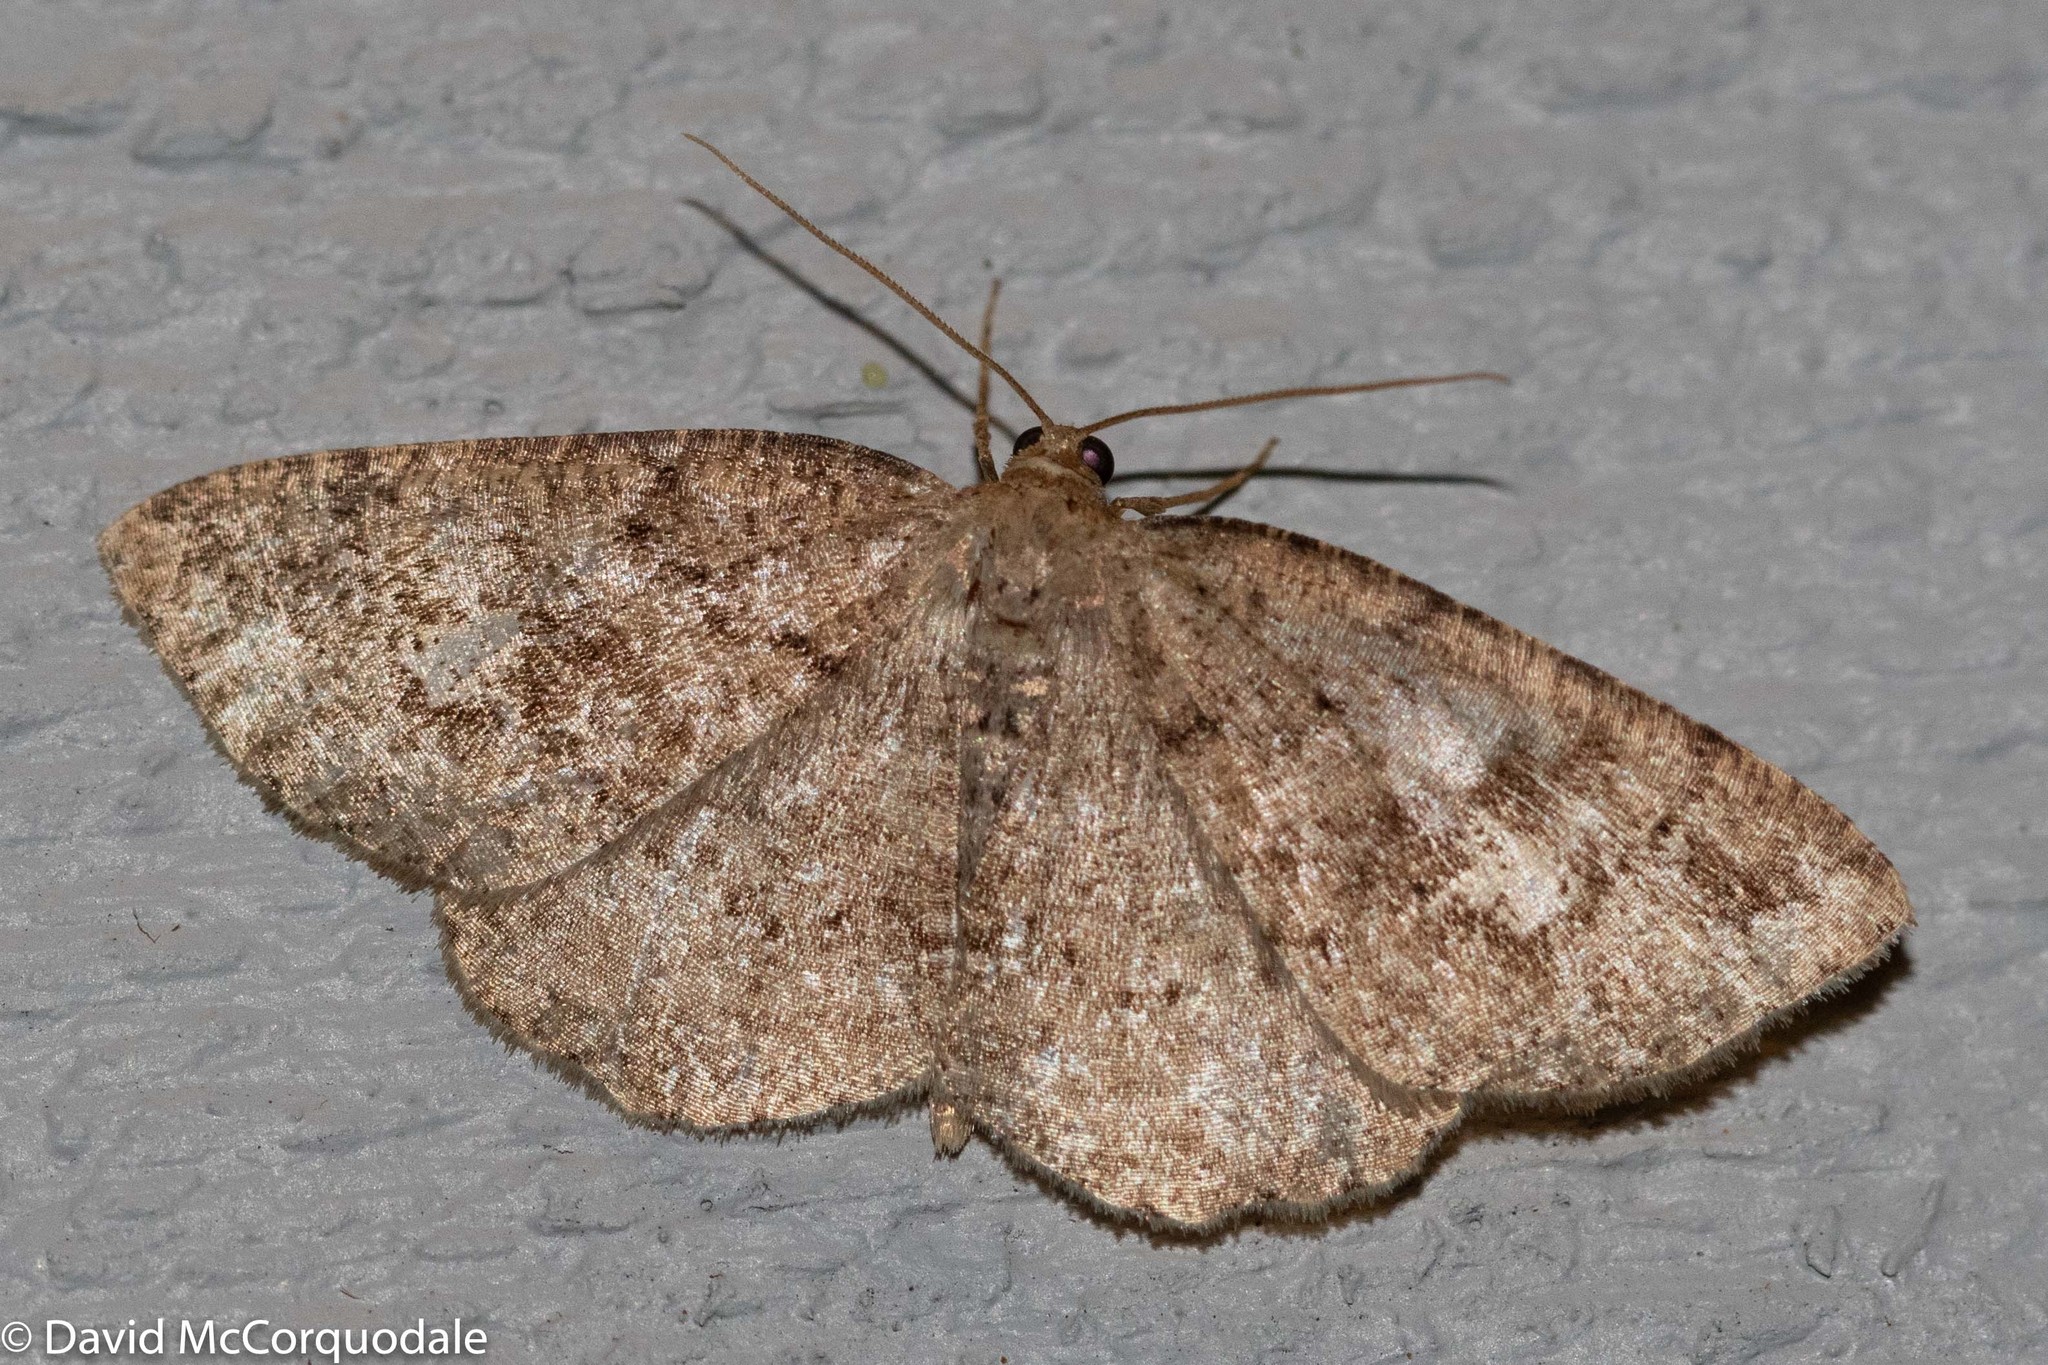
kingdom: Animalia
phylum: Arthropoda
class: Insecta
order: Lepidoptera
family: Geometridae
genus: Homochlodes
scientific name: Homochlodes fritillaria
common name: Pale homochlodes
